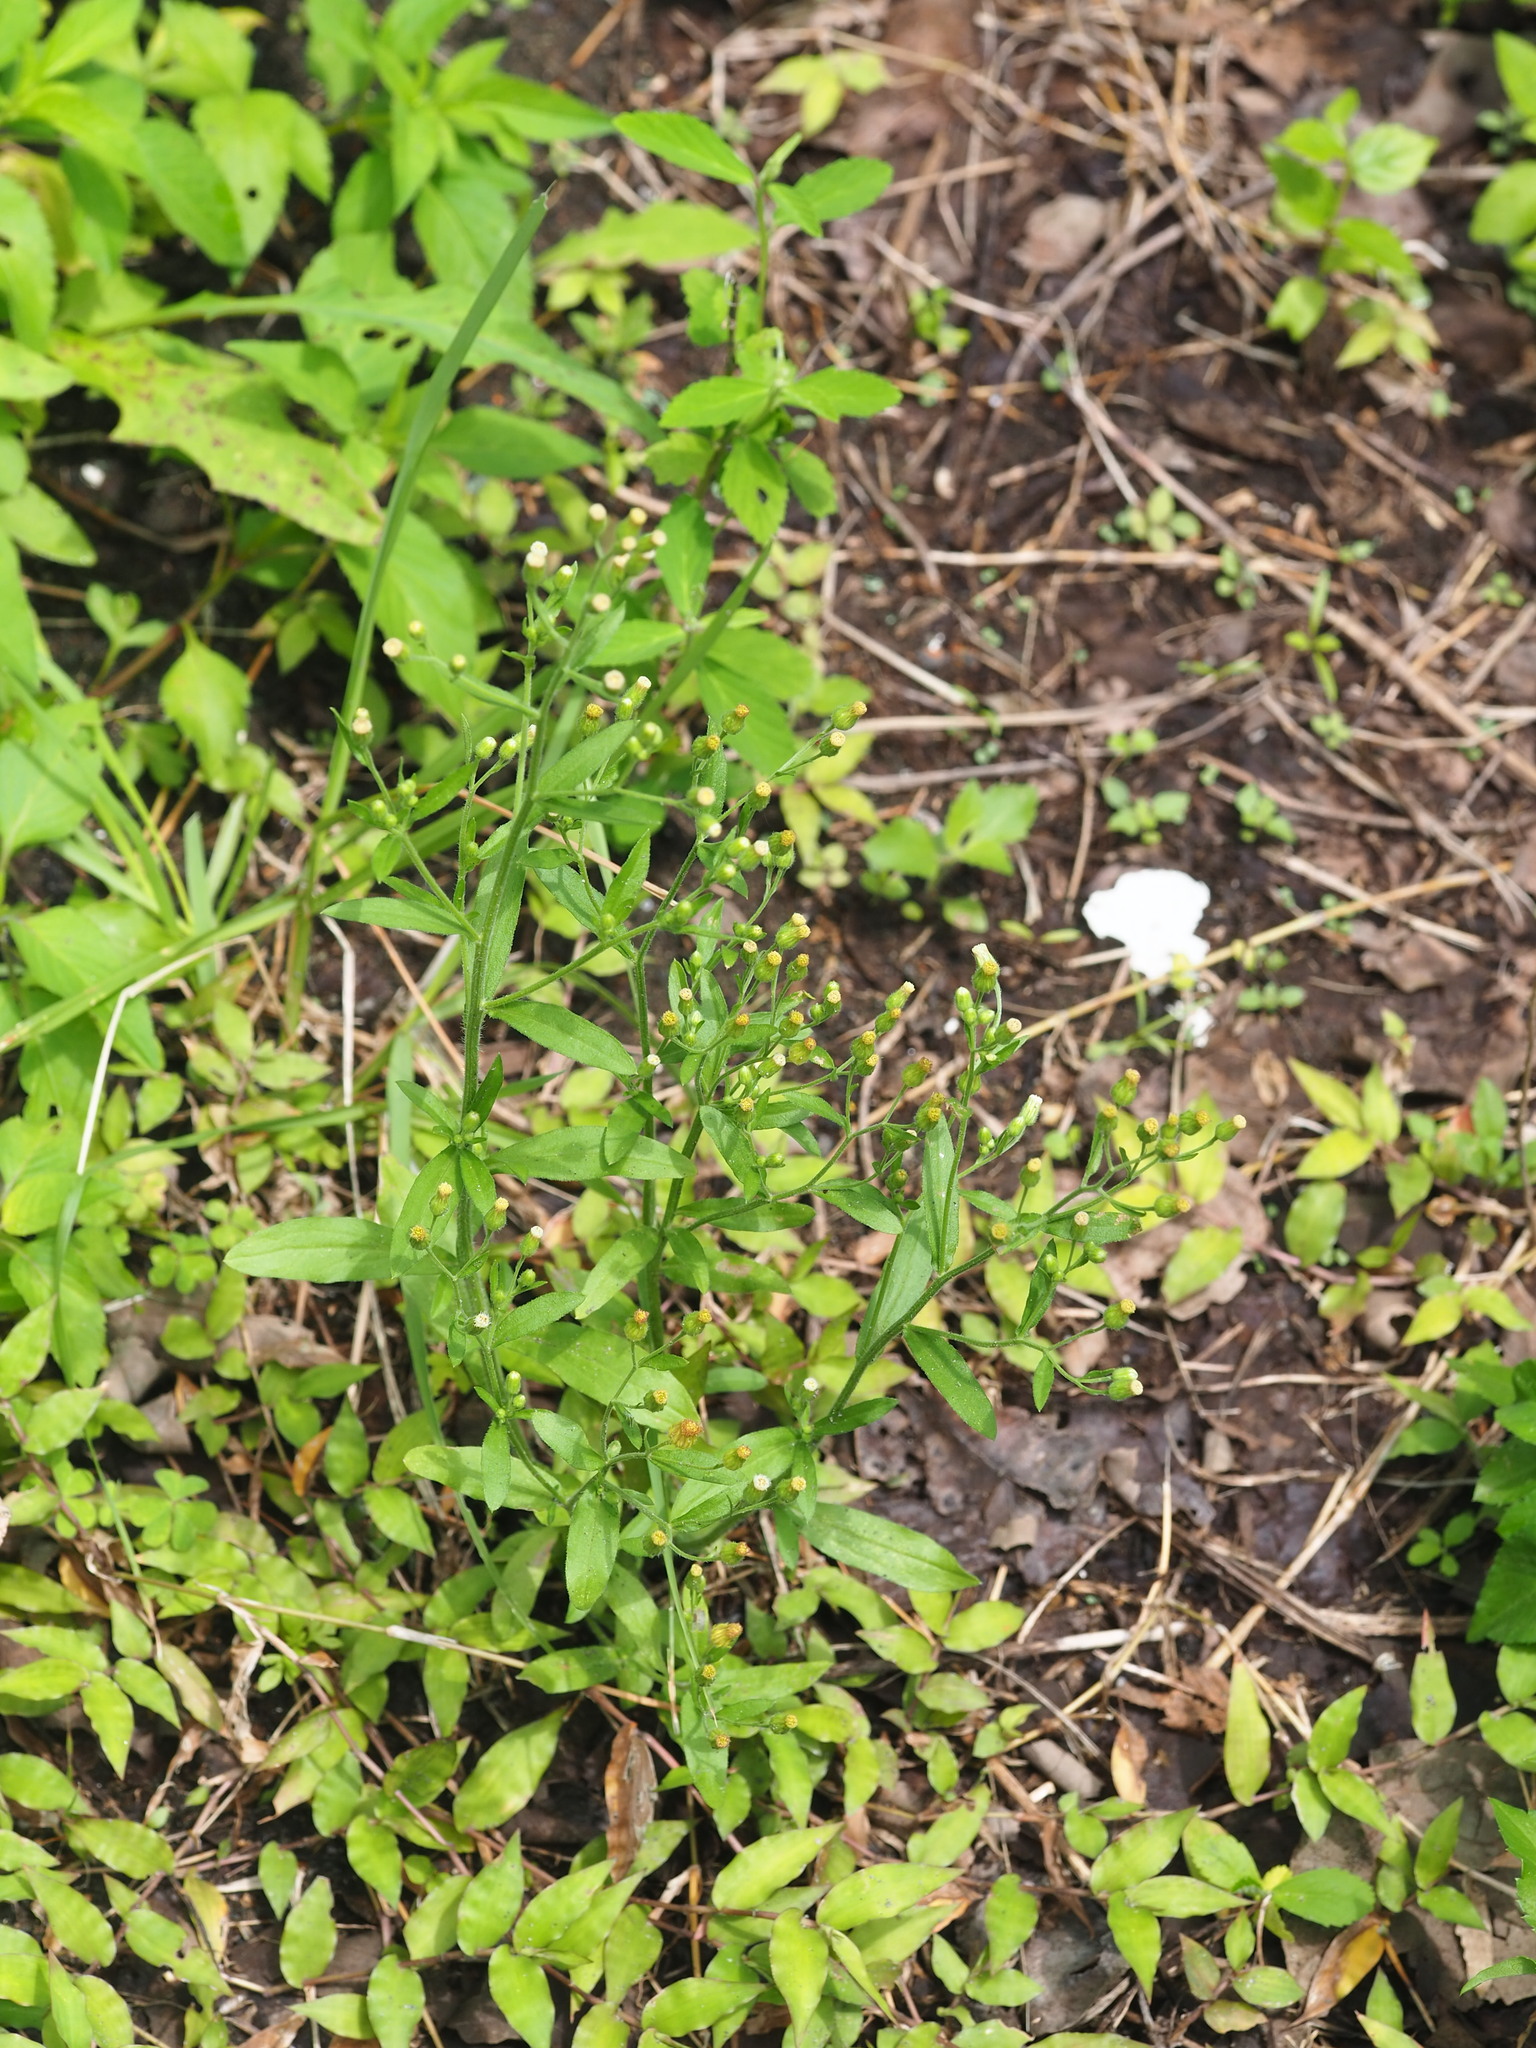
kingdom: Plantae
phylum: Tracheophyta
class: Magnoliopsida
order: Asterales
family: Asteraceae
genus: Erigeron
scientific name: Erigeron sumatrensis
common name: Daisy
